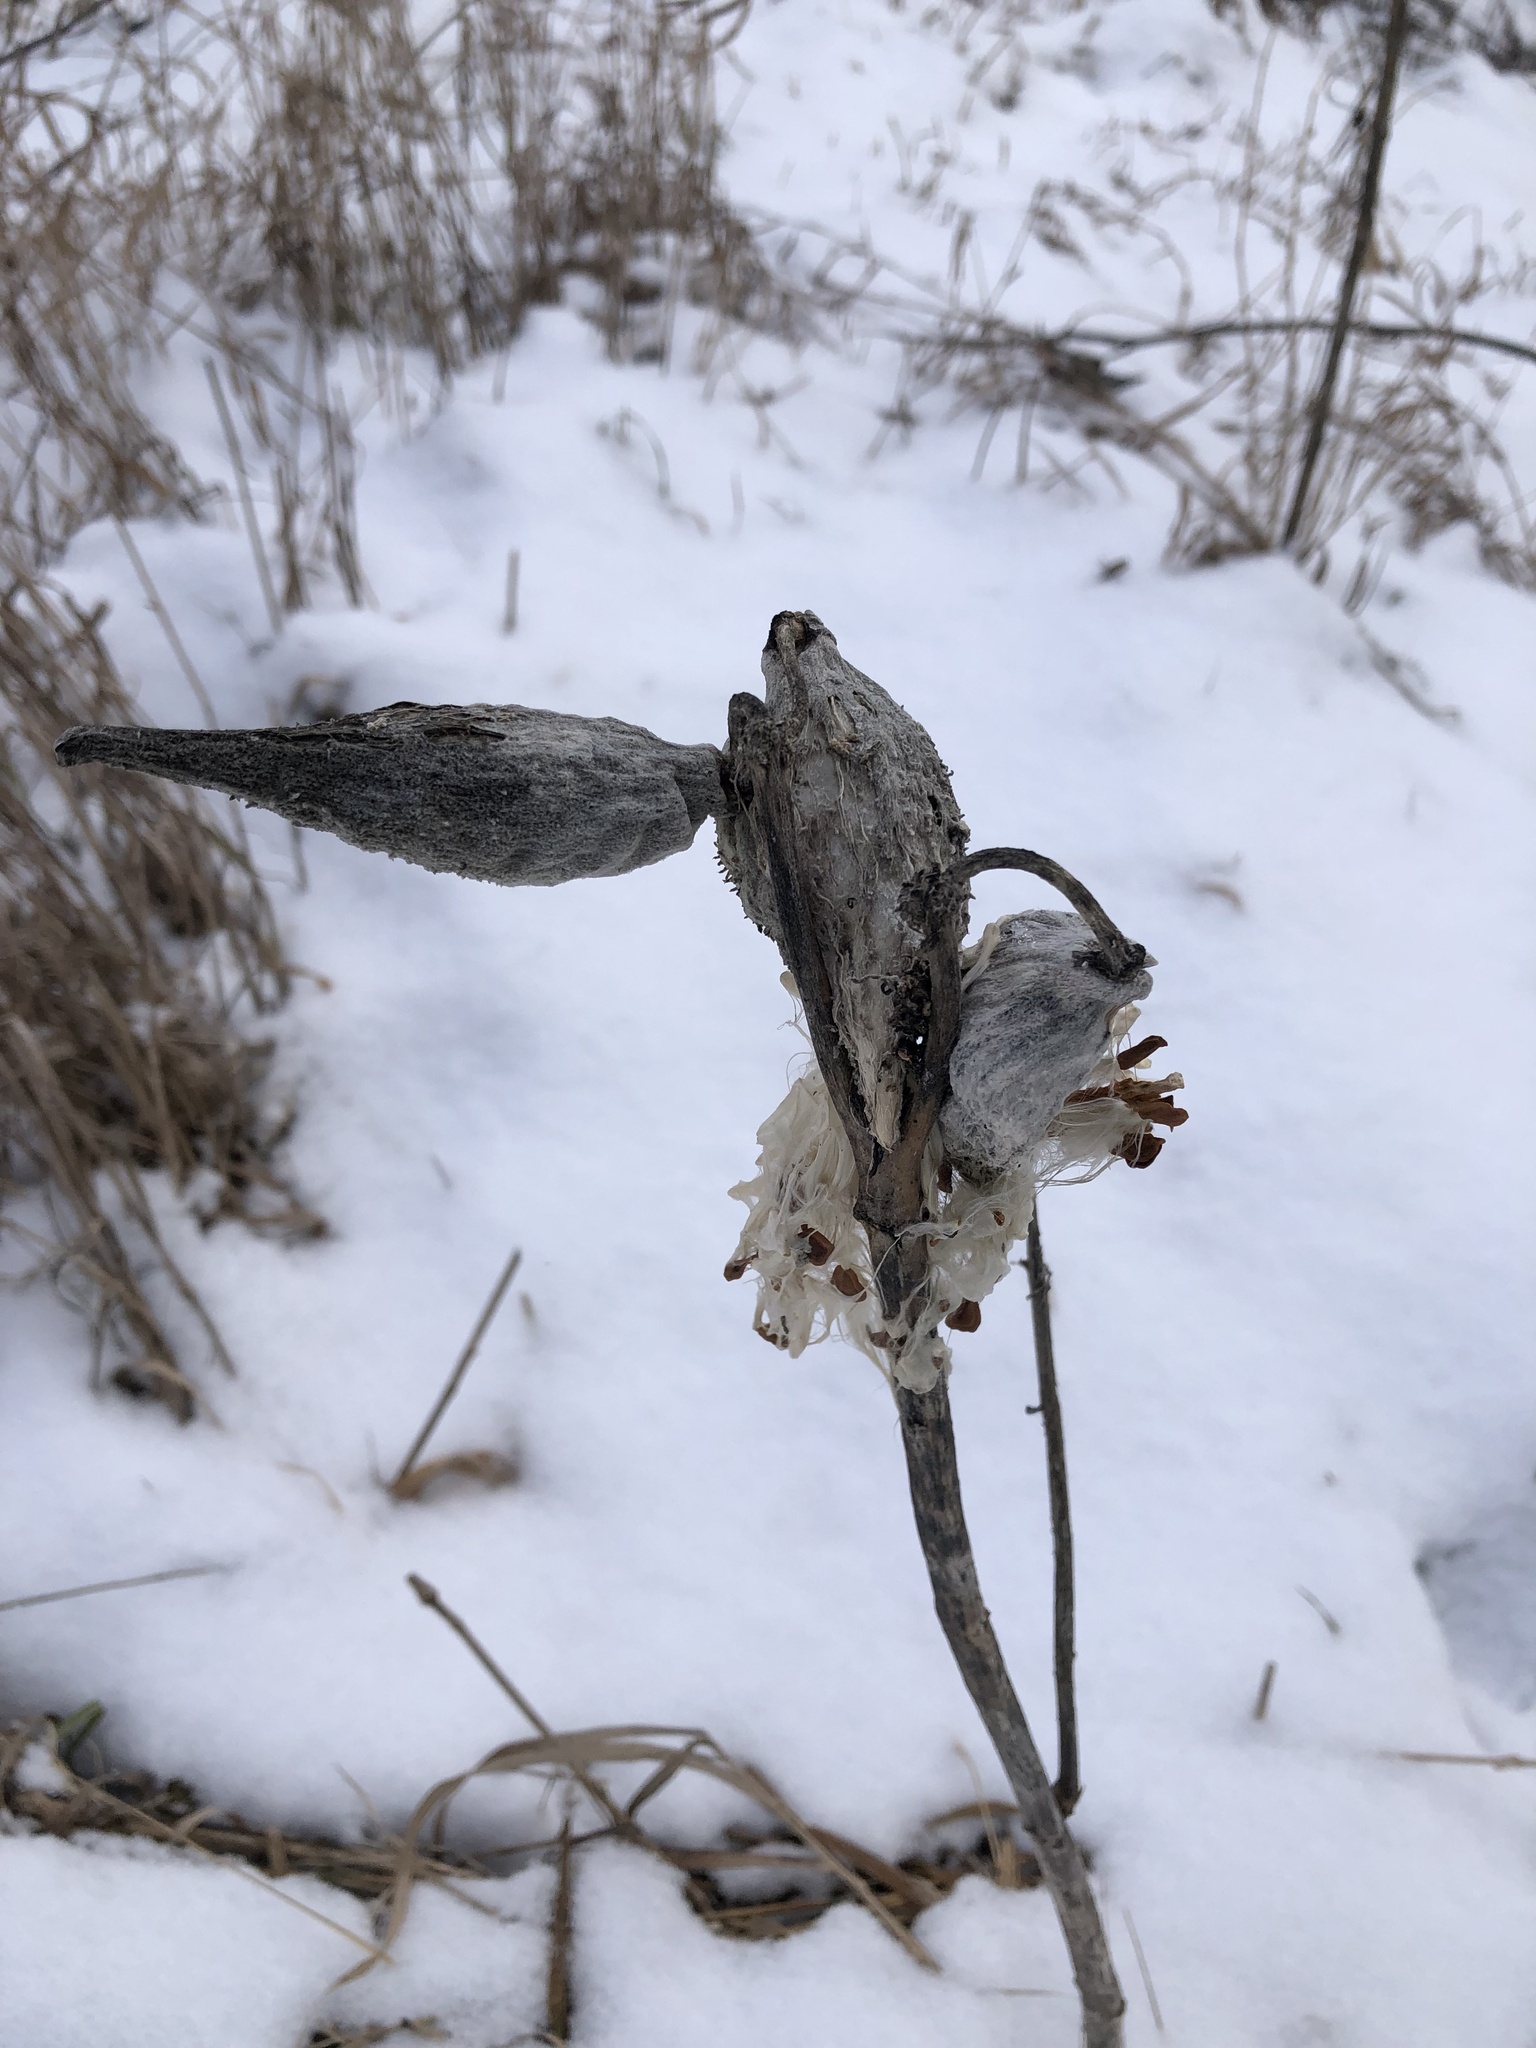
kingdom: Plantae
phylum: Tracheophyta
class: Magnoliopsida
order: Gentianales
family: Apocynaceae
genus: Asclepias
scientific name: Asclepias syriaca
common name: Common milkweed
